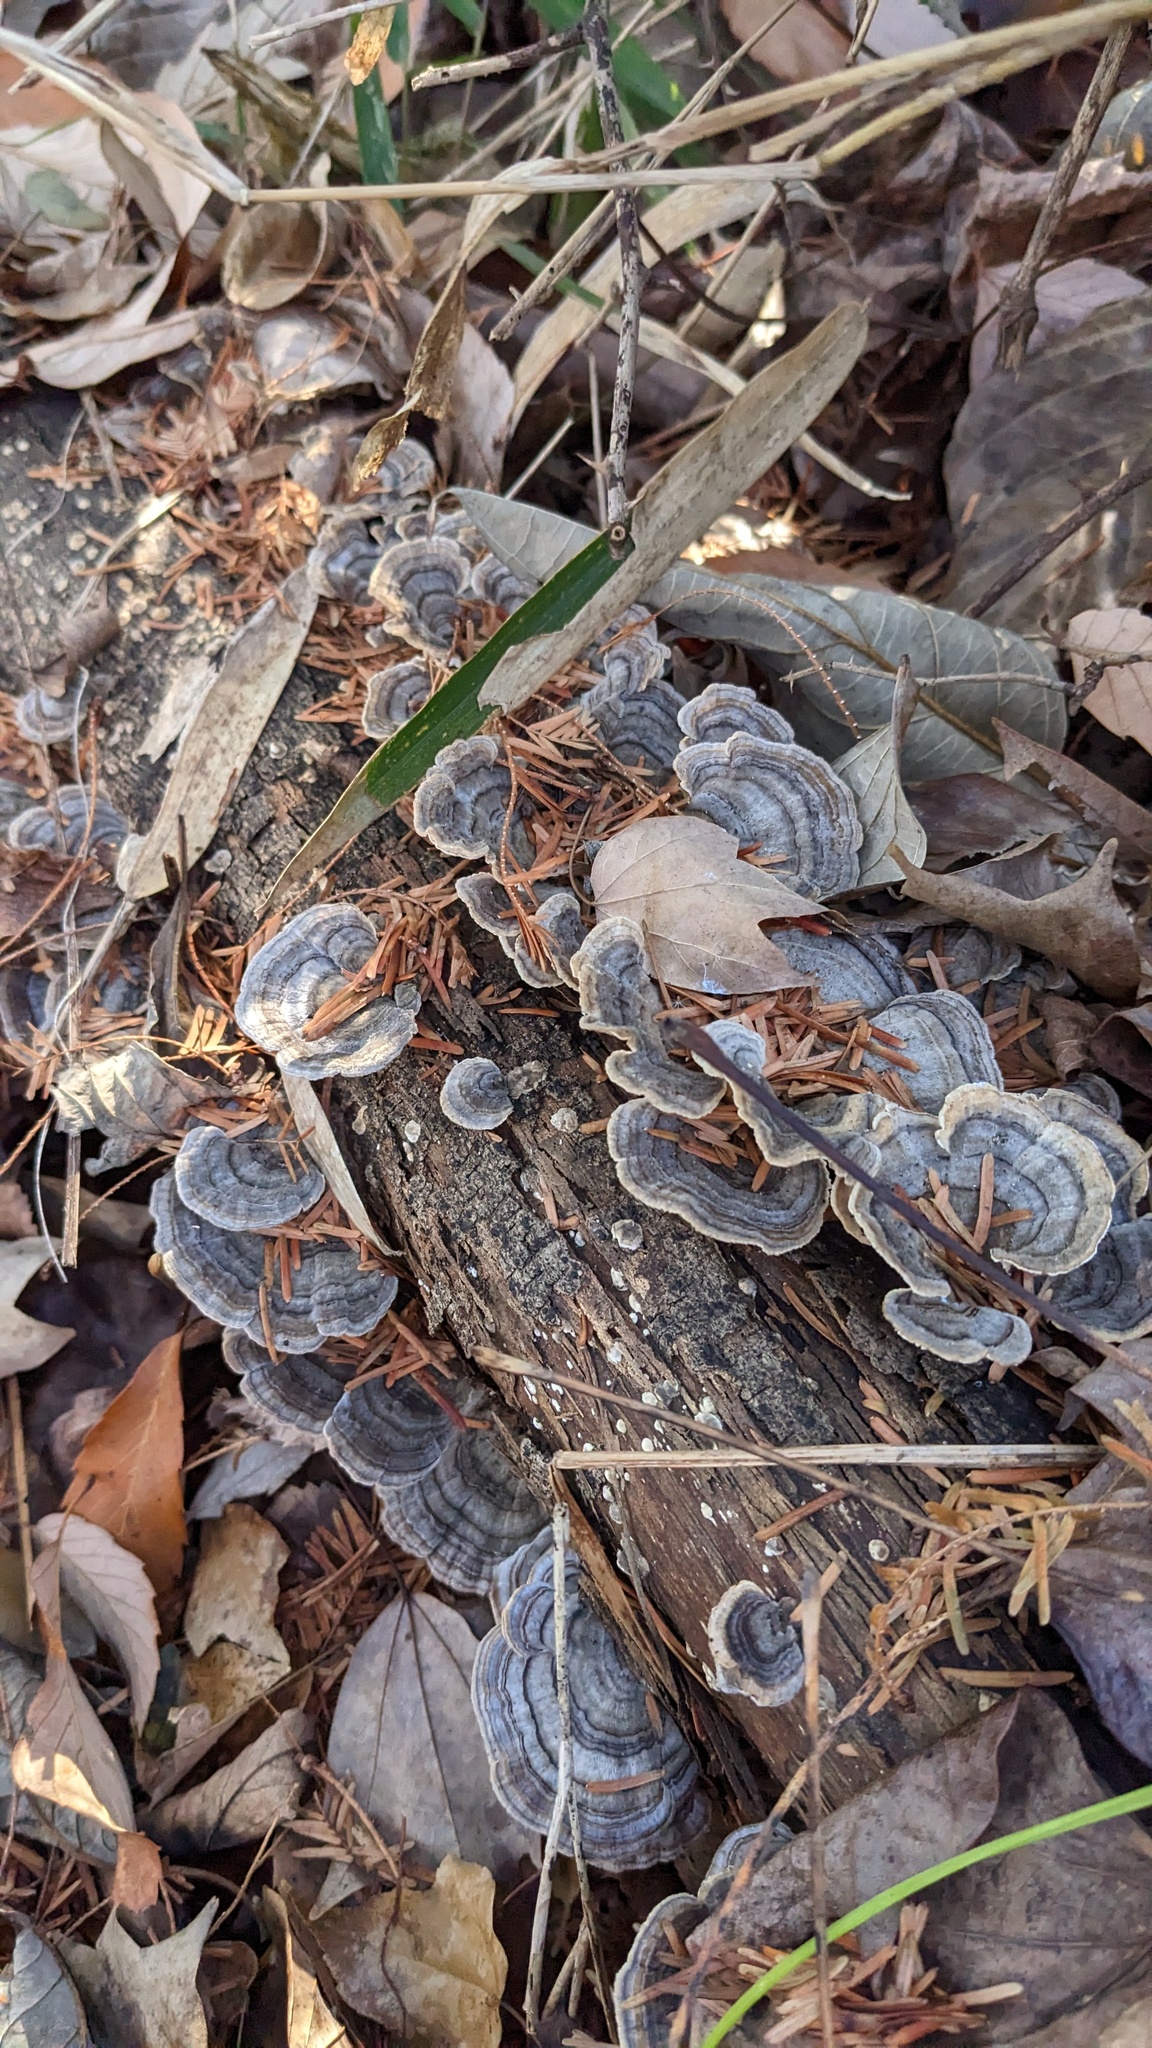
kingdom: Fungi
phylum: Basidiomycota
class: Agaricomycetes
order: Polyporales
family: Polyporaceae
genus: Trametes
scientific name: Trametes versicolor
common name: Turkeytail
